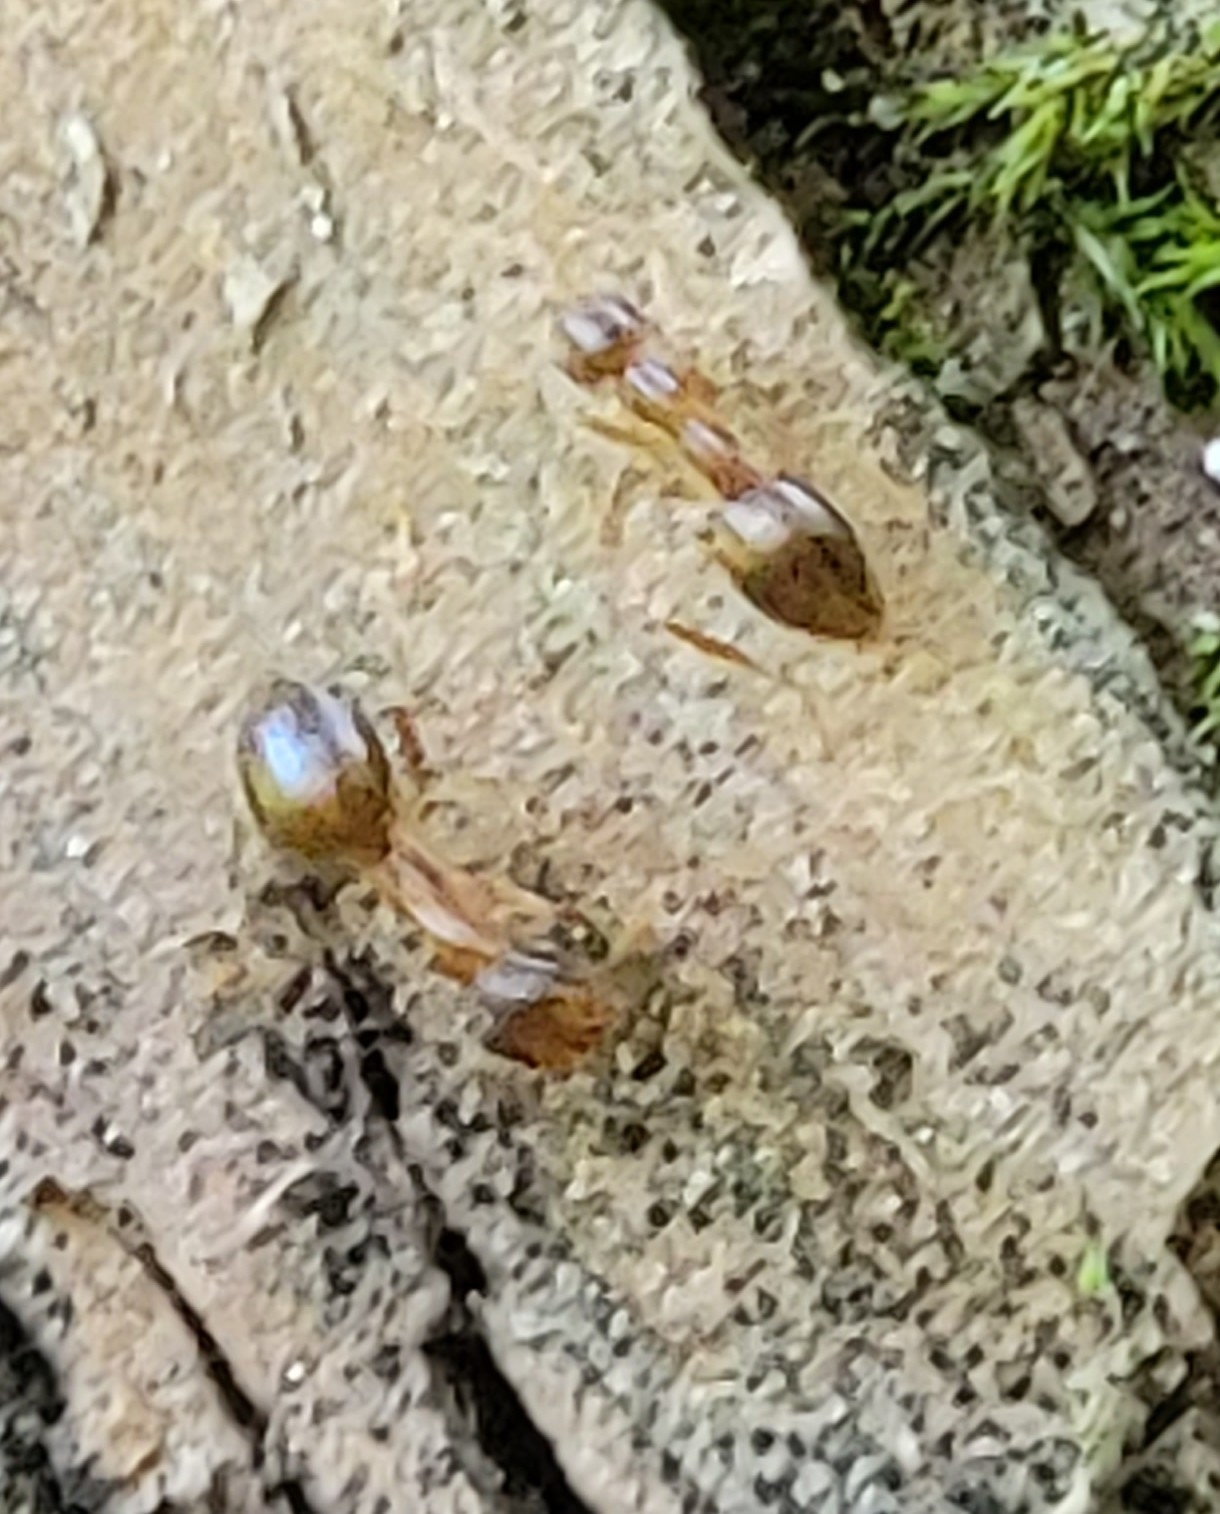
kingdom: Animalia
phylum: Arthropoda
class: Insecta
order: Hymenoptera
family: Formicidae
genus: Prenolepis
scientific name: Prenolepis imparis
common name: Small honey ant
